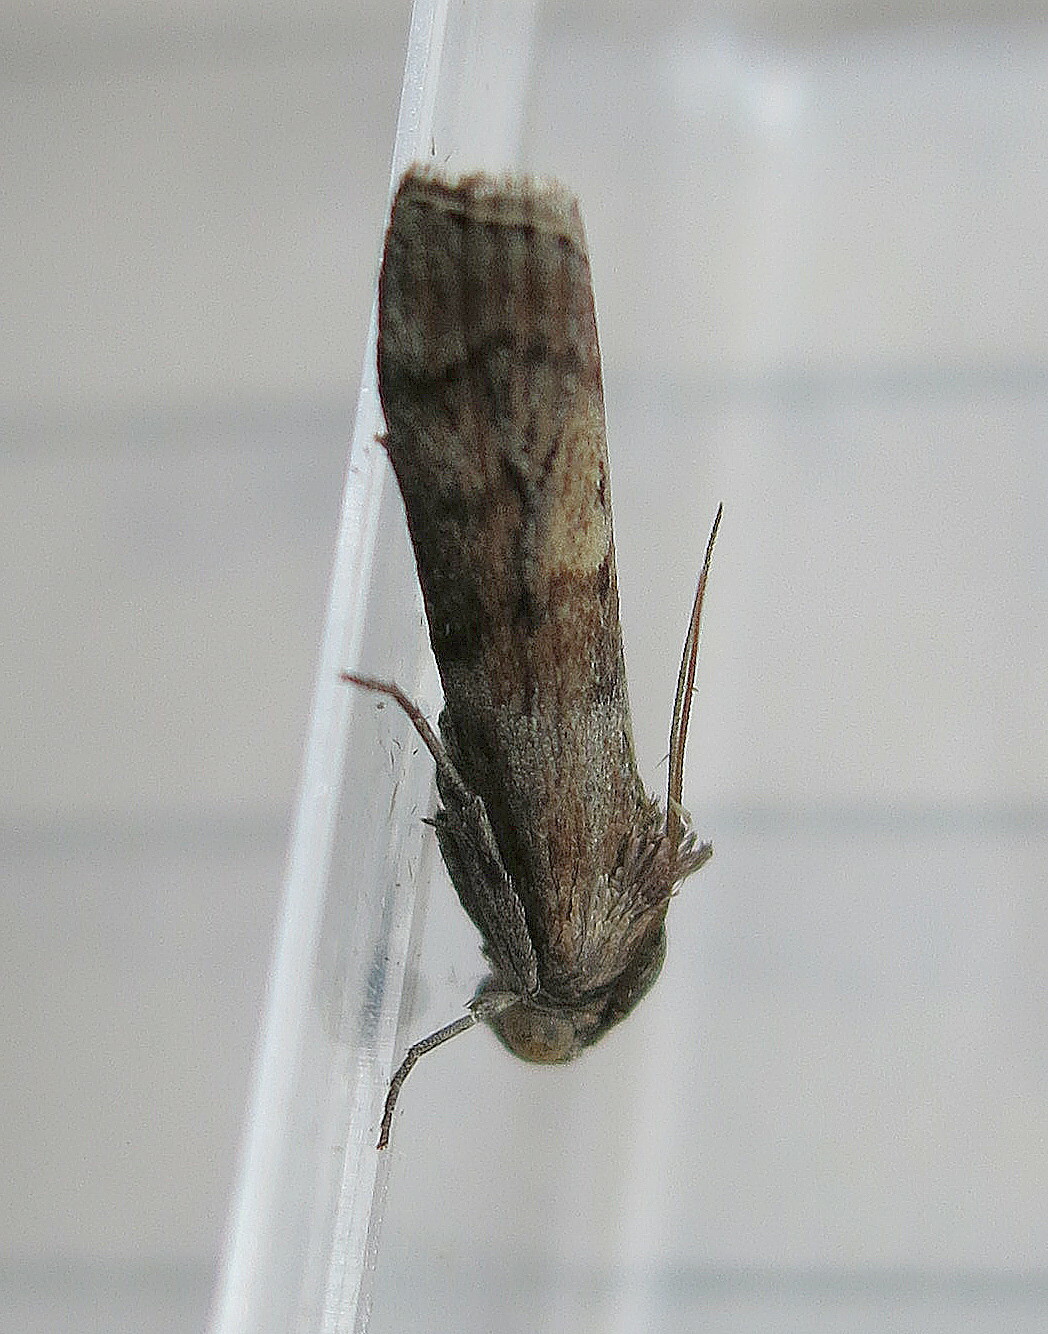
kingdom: Animalia
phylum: Arthropoda
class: Insecta
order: Lepidoptera
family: Pyralidae
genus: Phycita
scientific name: Phycita roborella
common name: Dotted oak knot-horn
